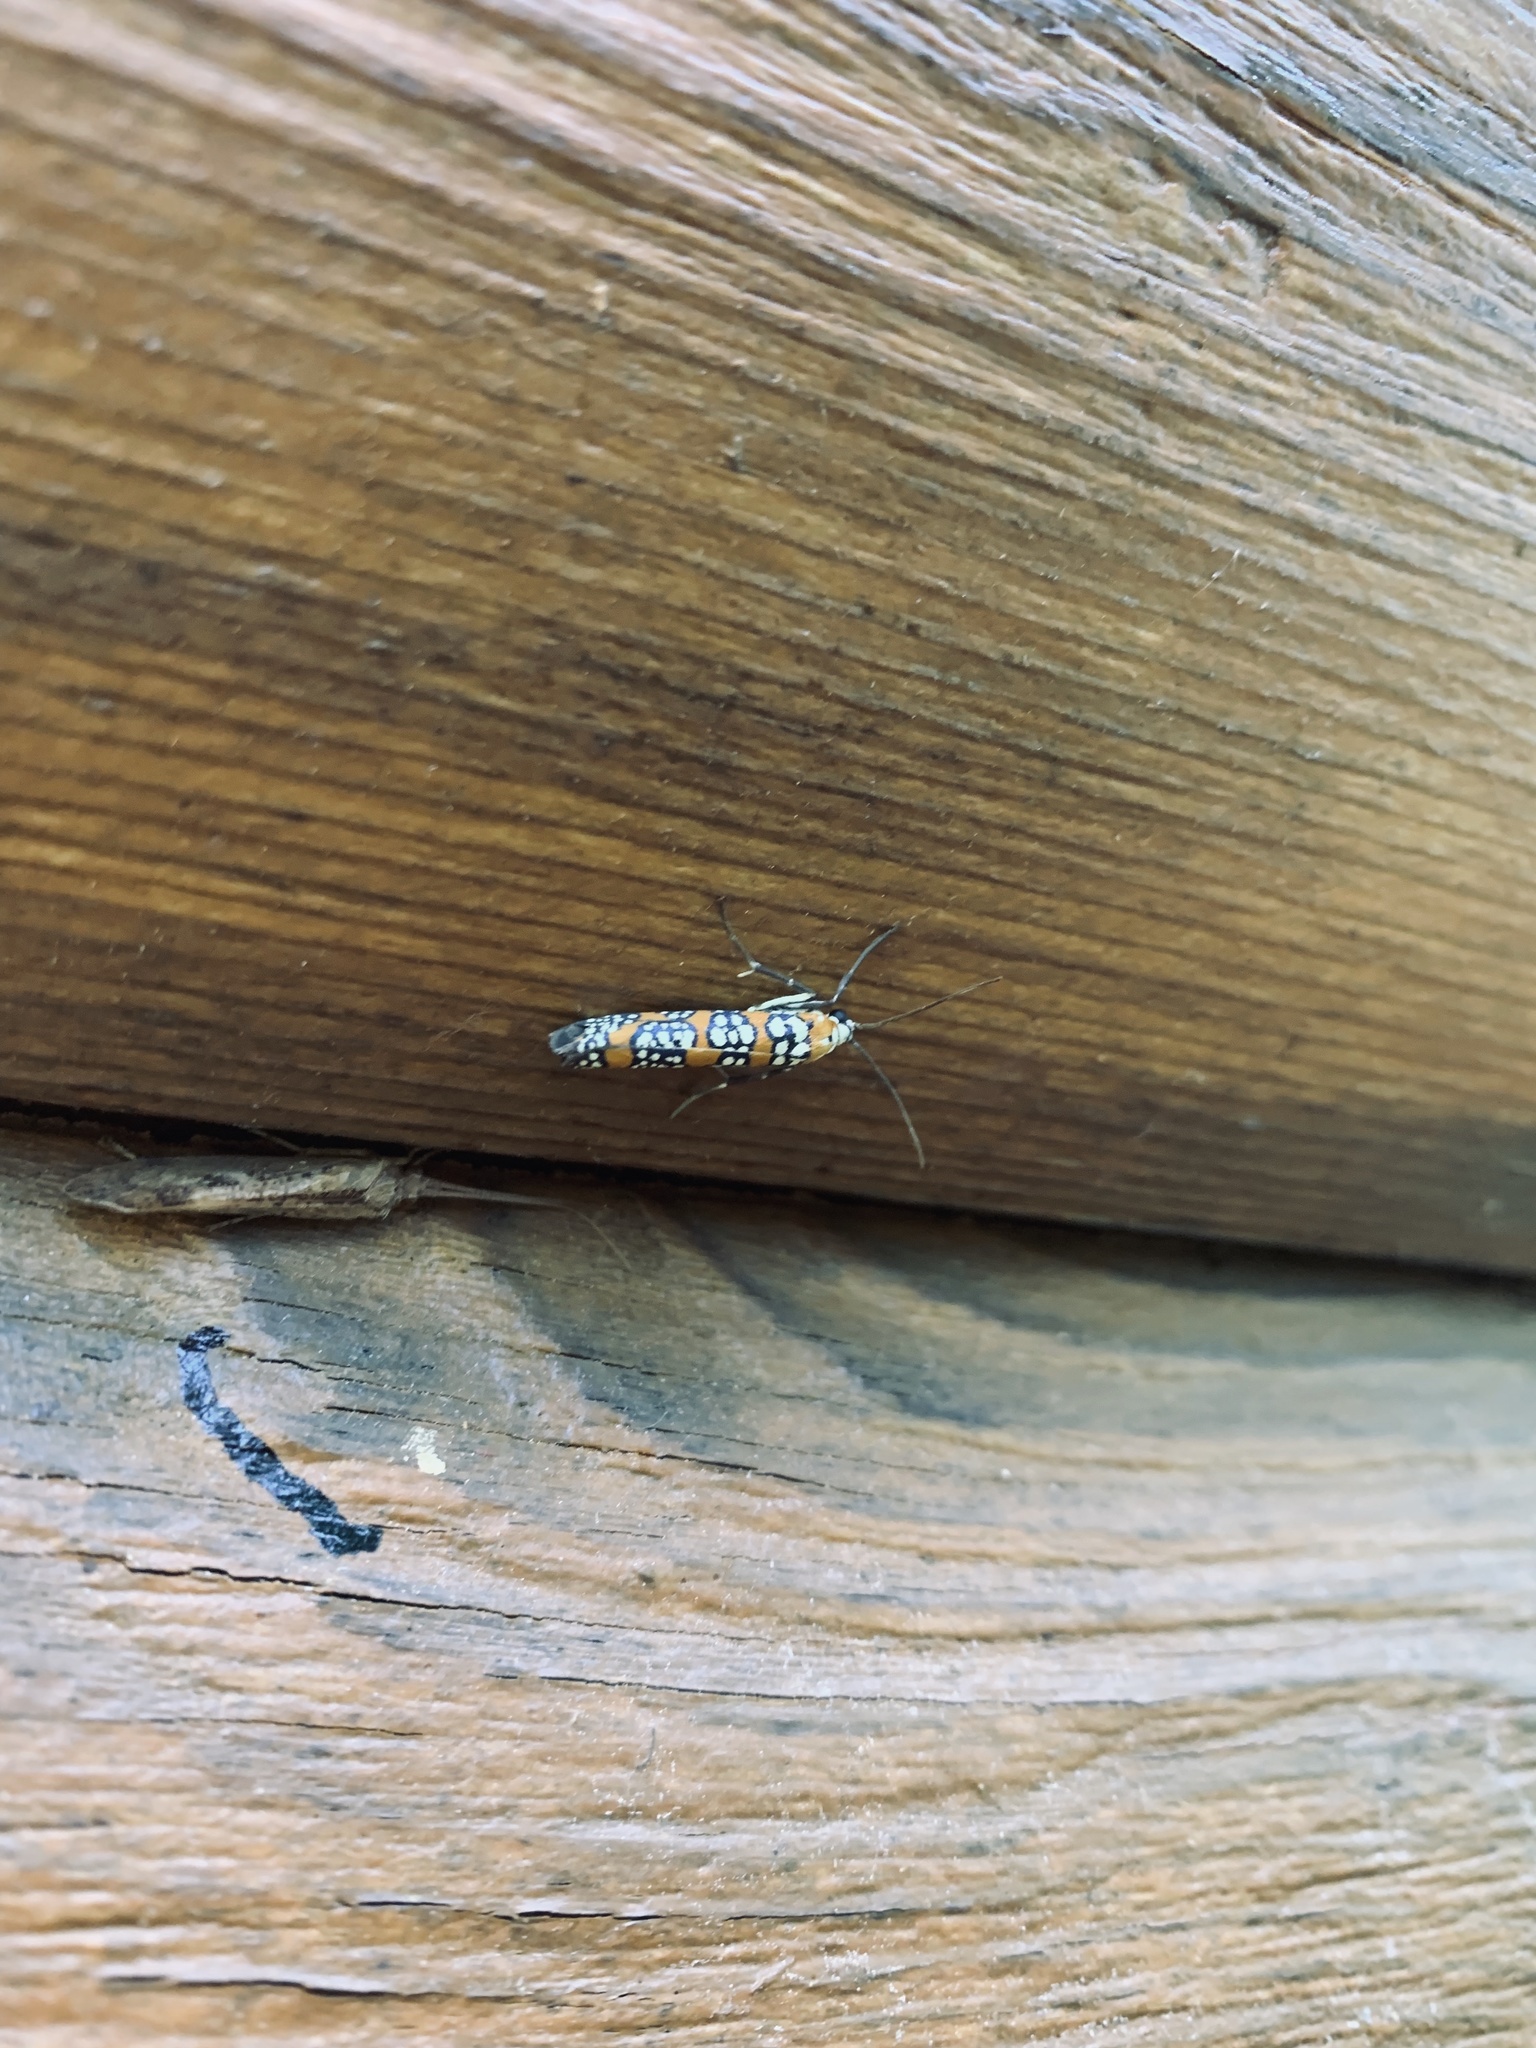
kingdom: Animalia
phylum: Arthropoda
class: Insecta
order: Lepidoptera
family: Attevidae
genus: Atteva
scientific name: Atteva punctella
